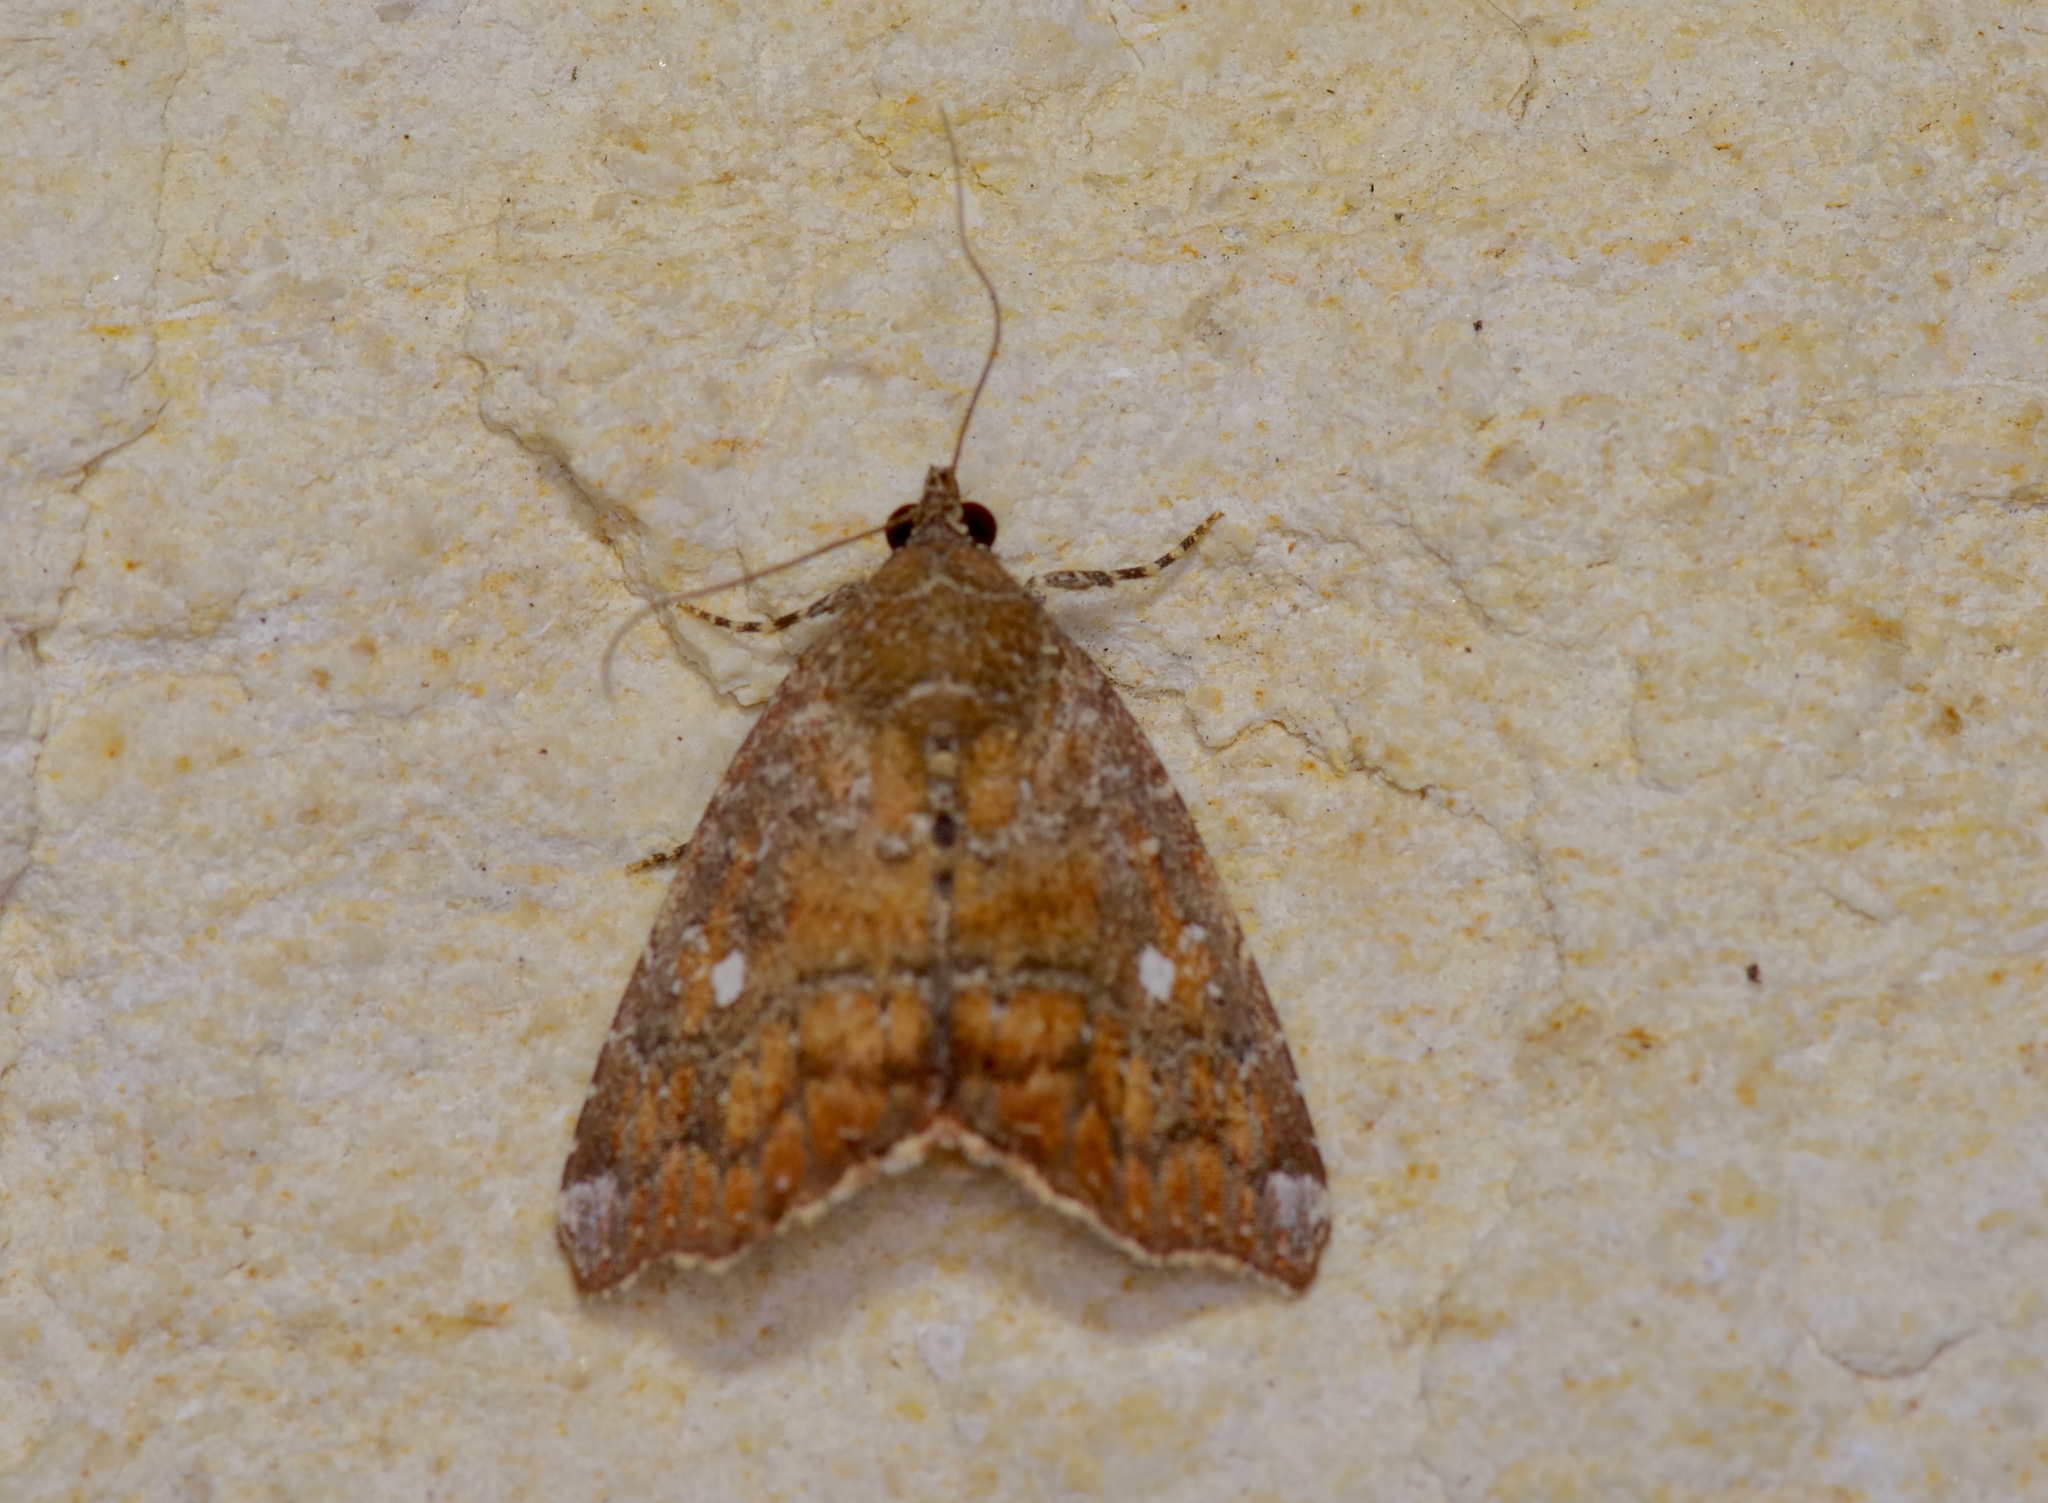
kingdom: Animalia
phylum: Arthropoda
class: Insecta
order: Lepidoptera
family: Noctuidae
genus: Amyna
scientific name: Amyna bullula
